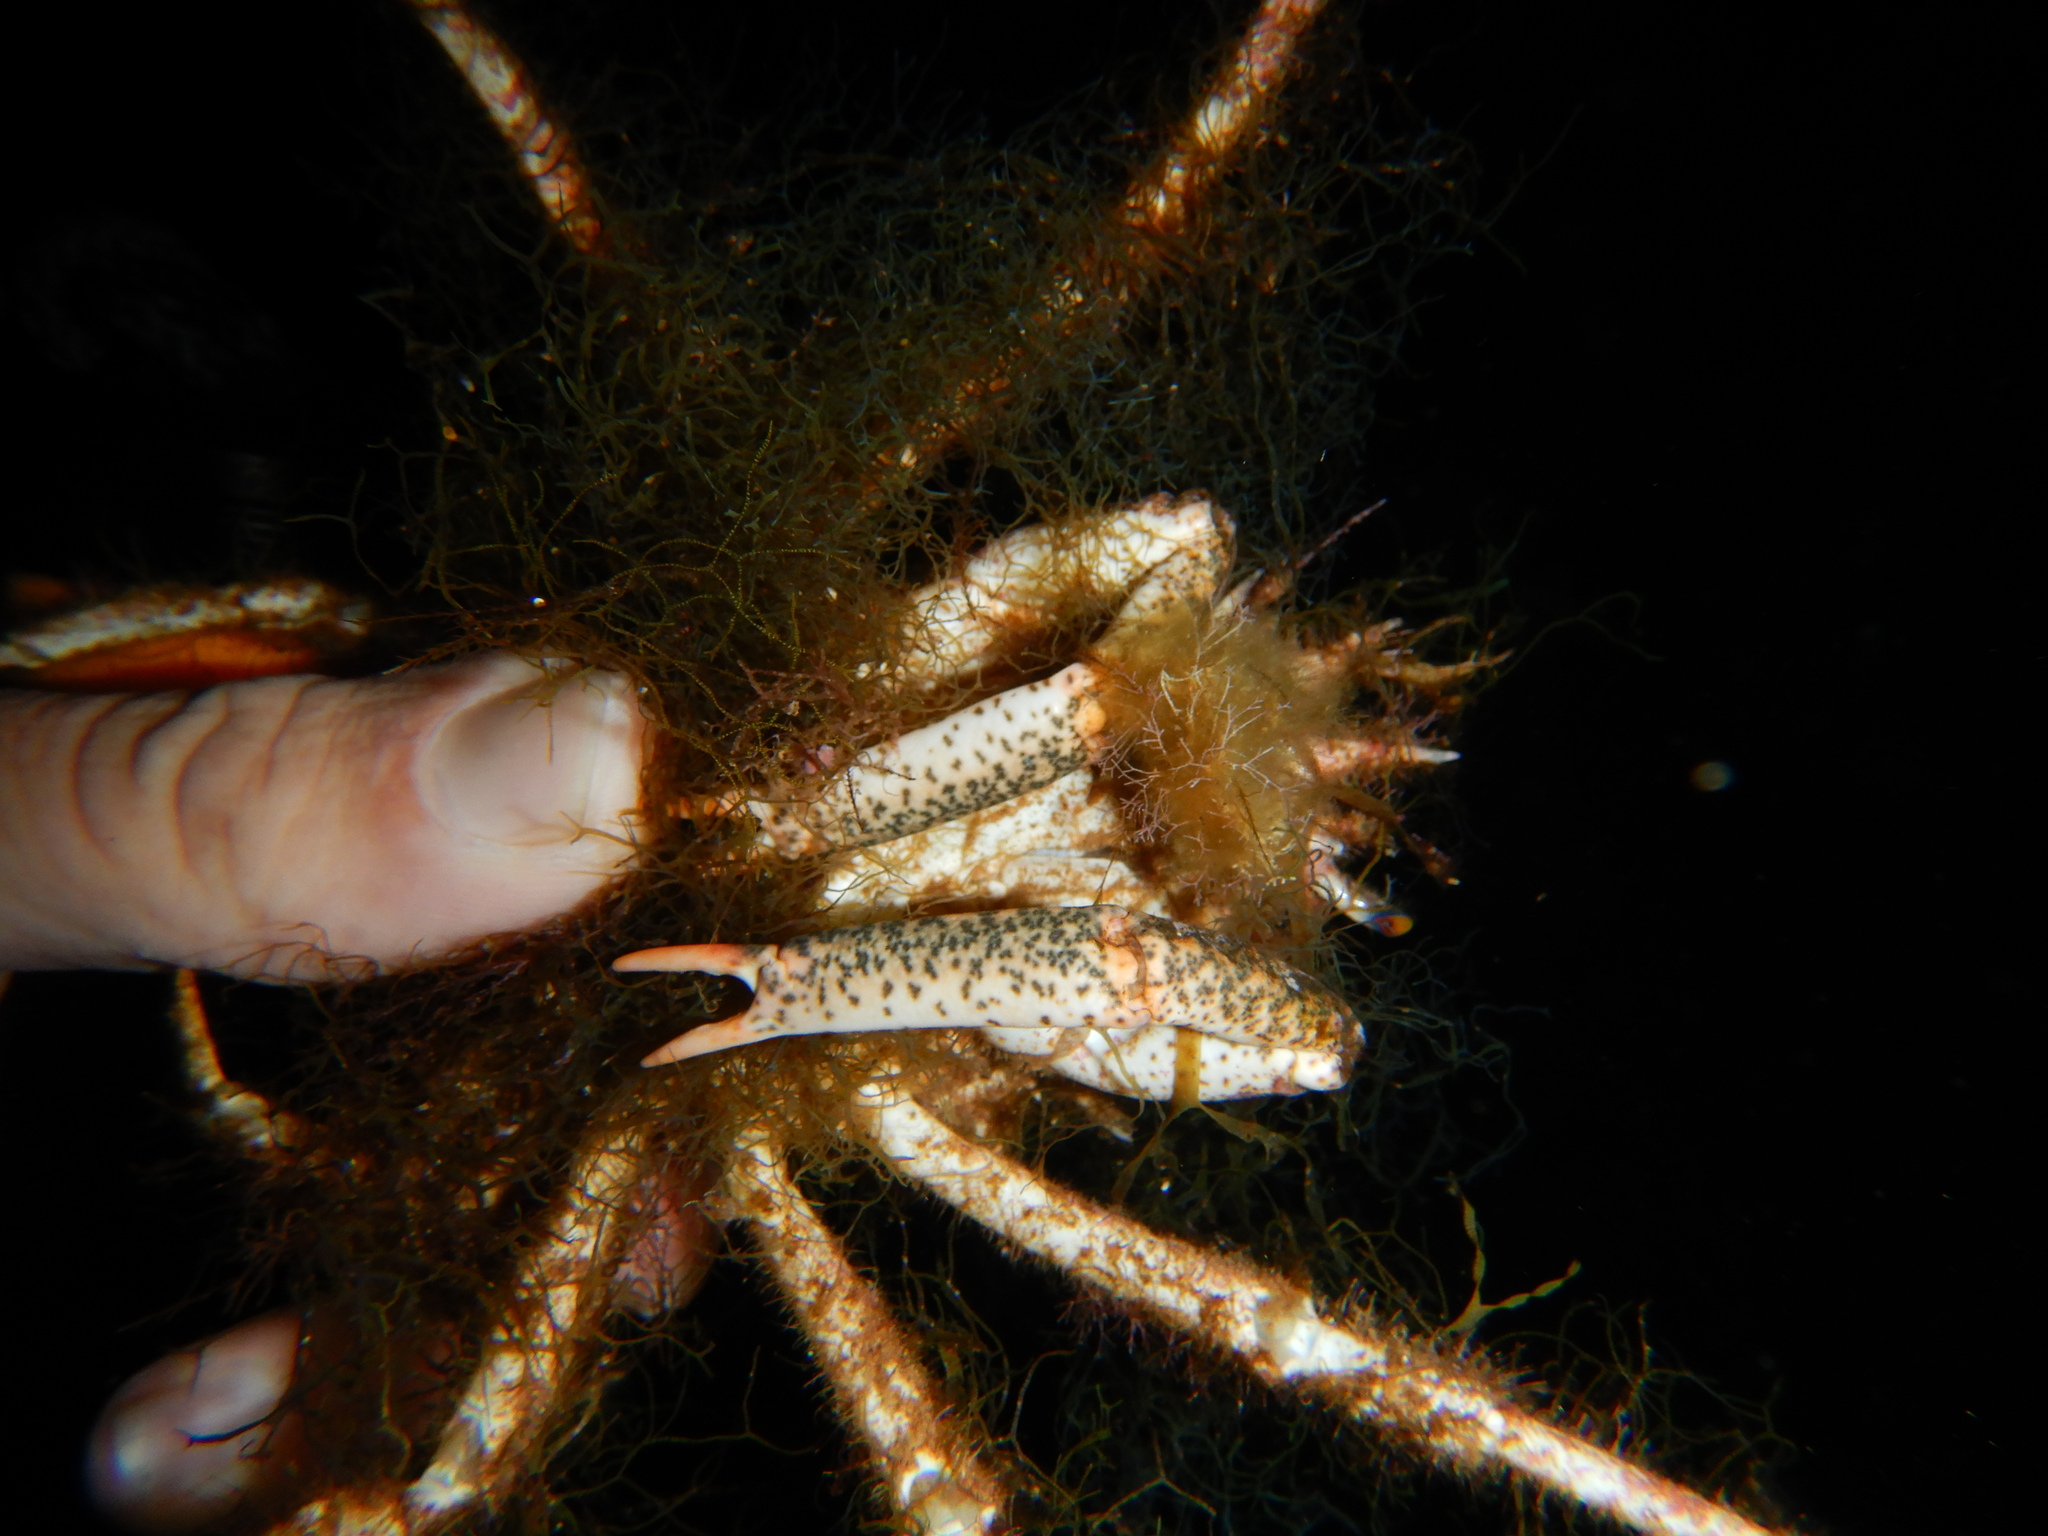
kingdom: Animalia
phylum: Arthropoda
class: Malacostraca
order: Decapoda
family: Majidae
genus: Maja
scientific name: Maja crispata
